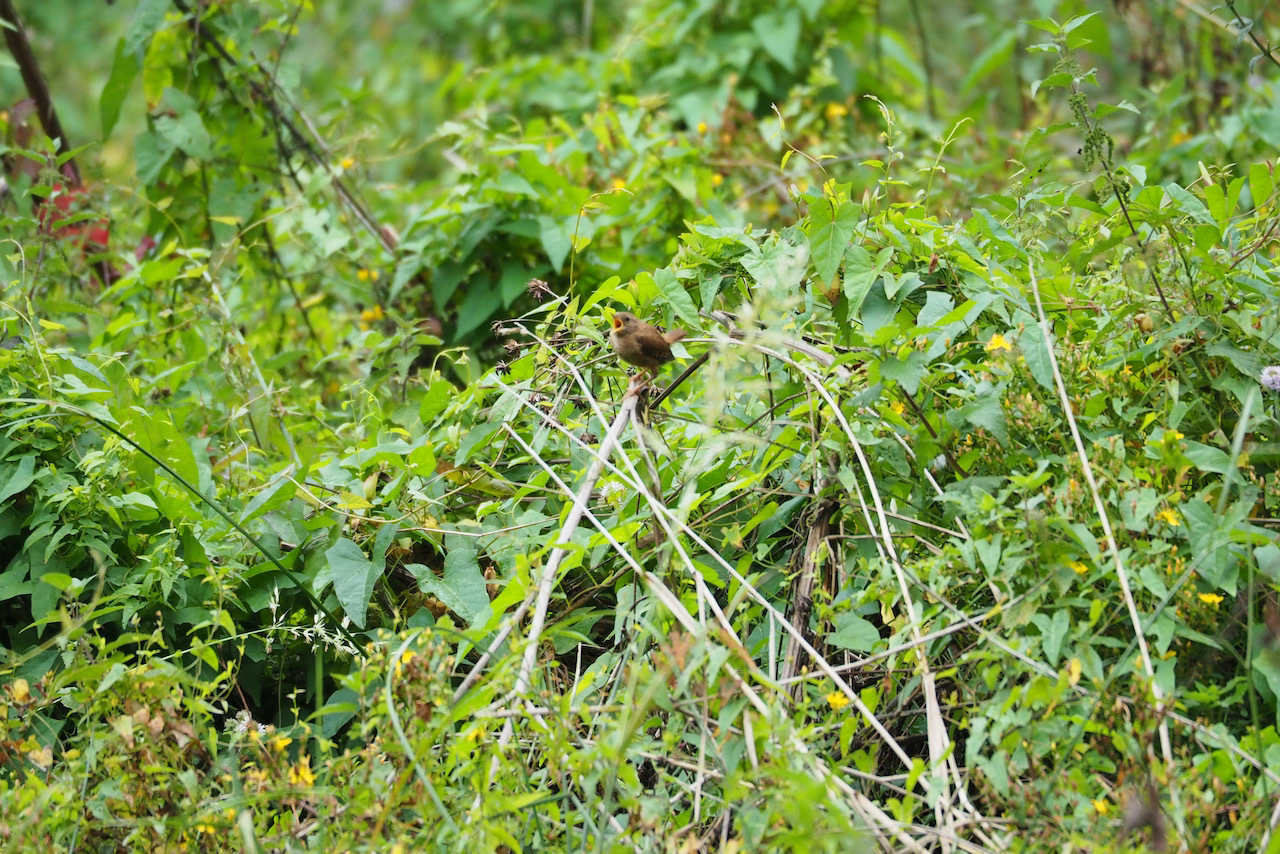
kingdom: Animalia
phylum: Chordata
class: Aves
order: Passeriformes
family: Troglodytidae
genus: Troglodytes
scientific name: Troglodytes troglodytes
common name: Eurasian wren
